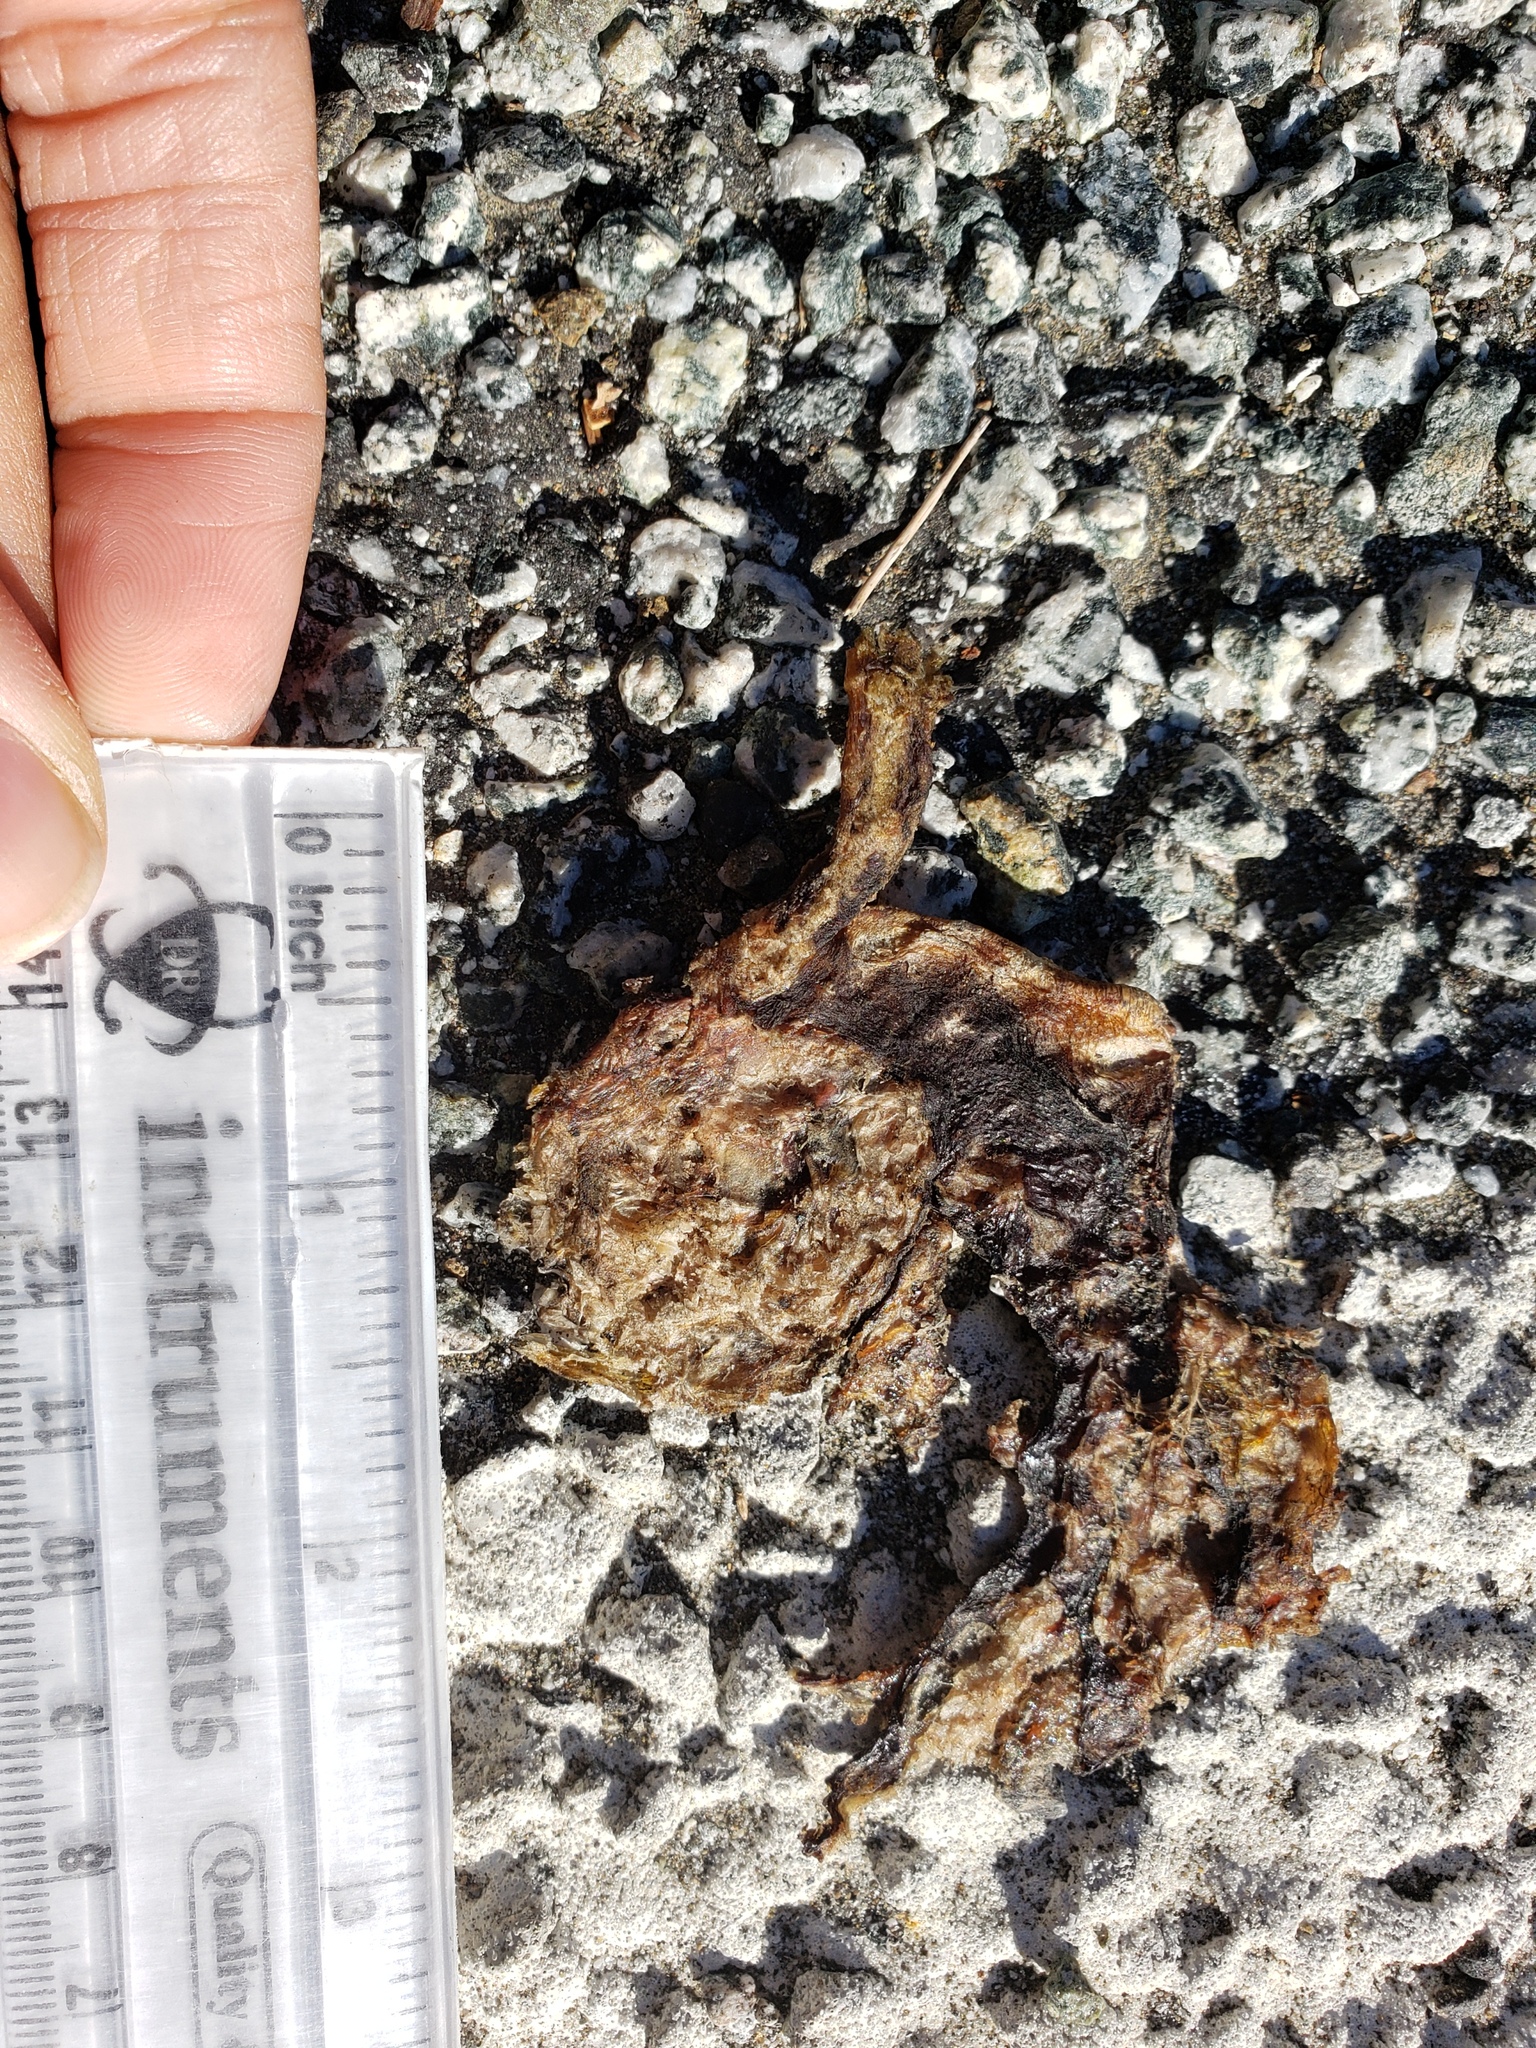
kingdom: Animalia
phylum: Chordata
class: Amphibia
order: Caudata
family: Salamandridae
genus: Taricha
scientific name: Taricha
